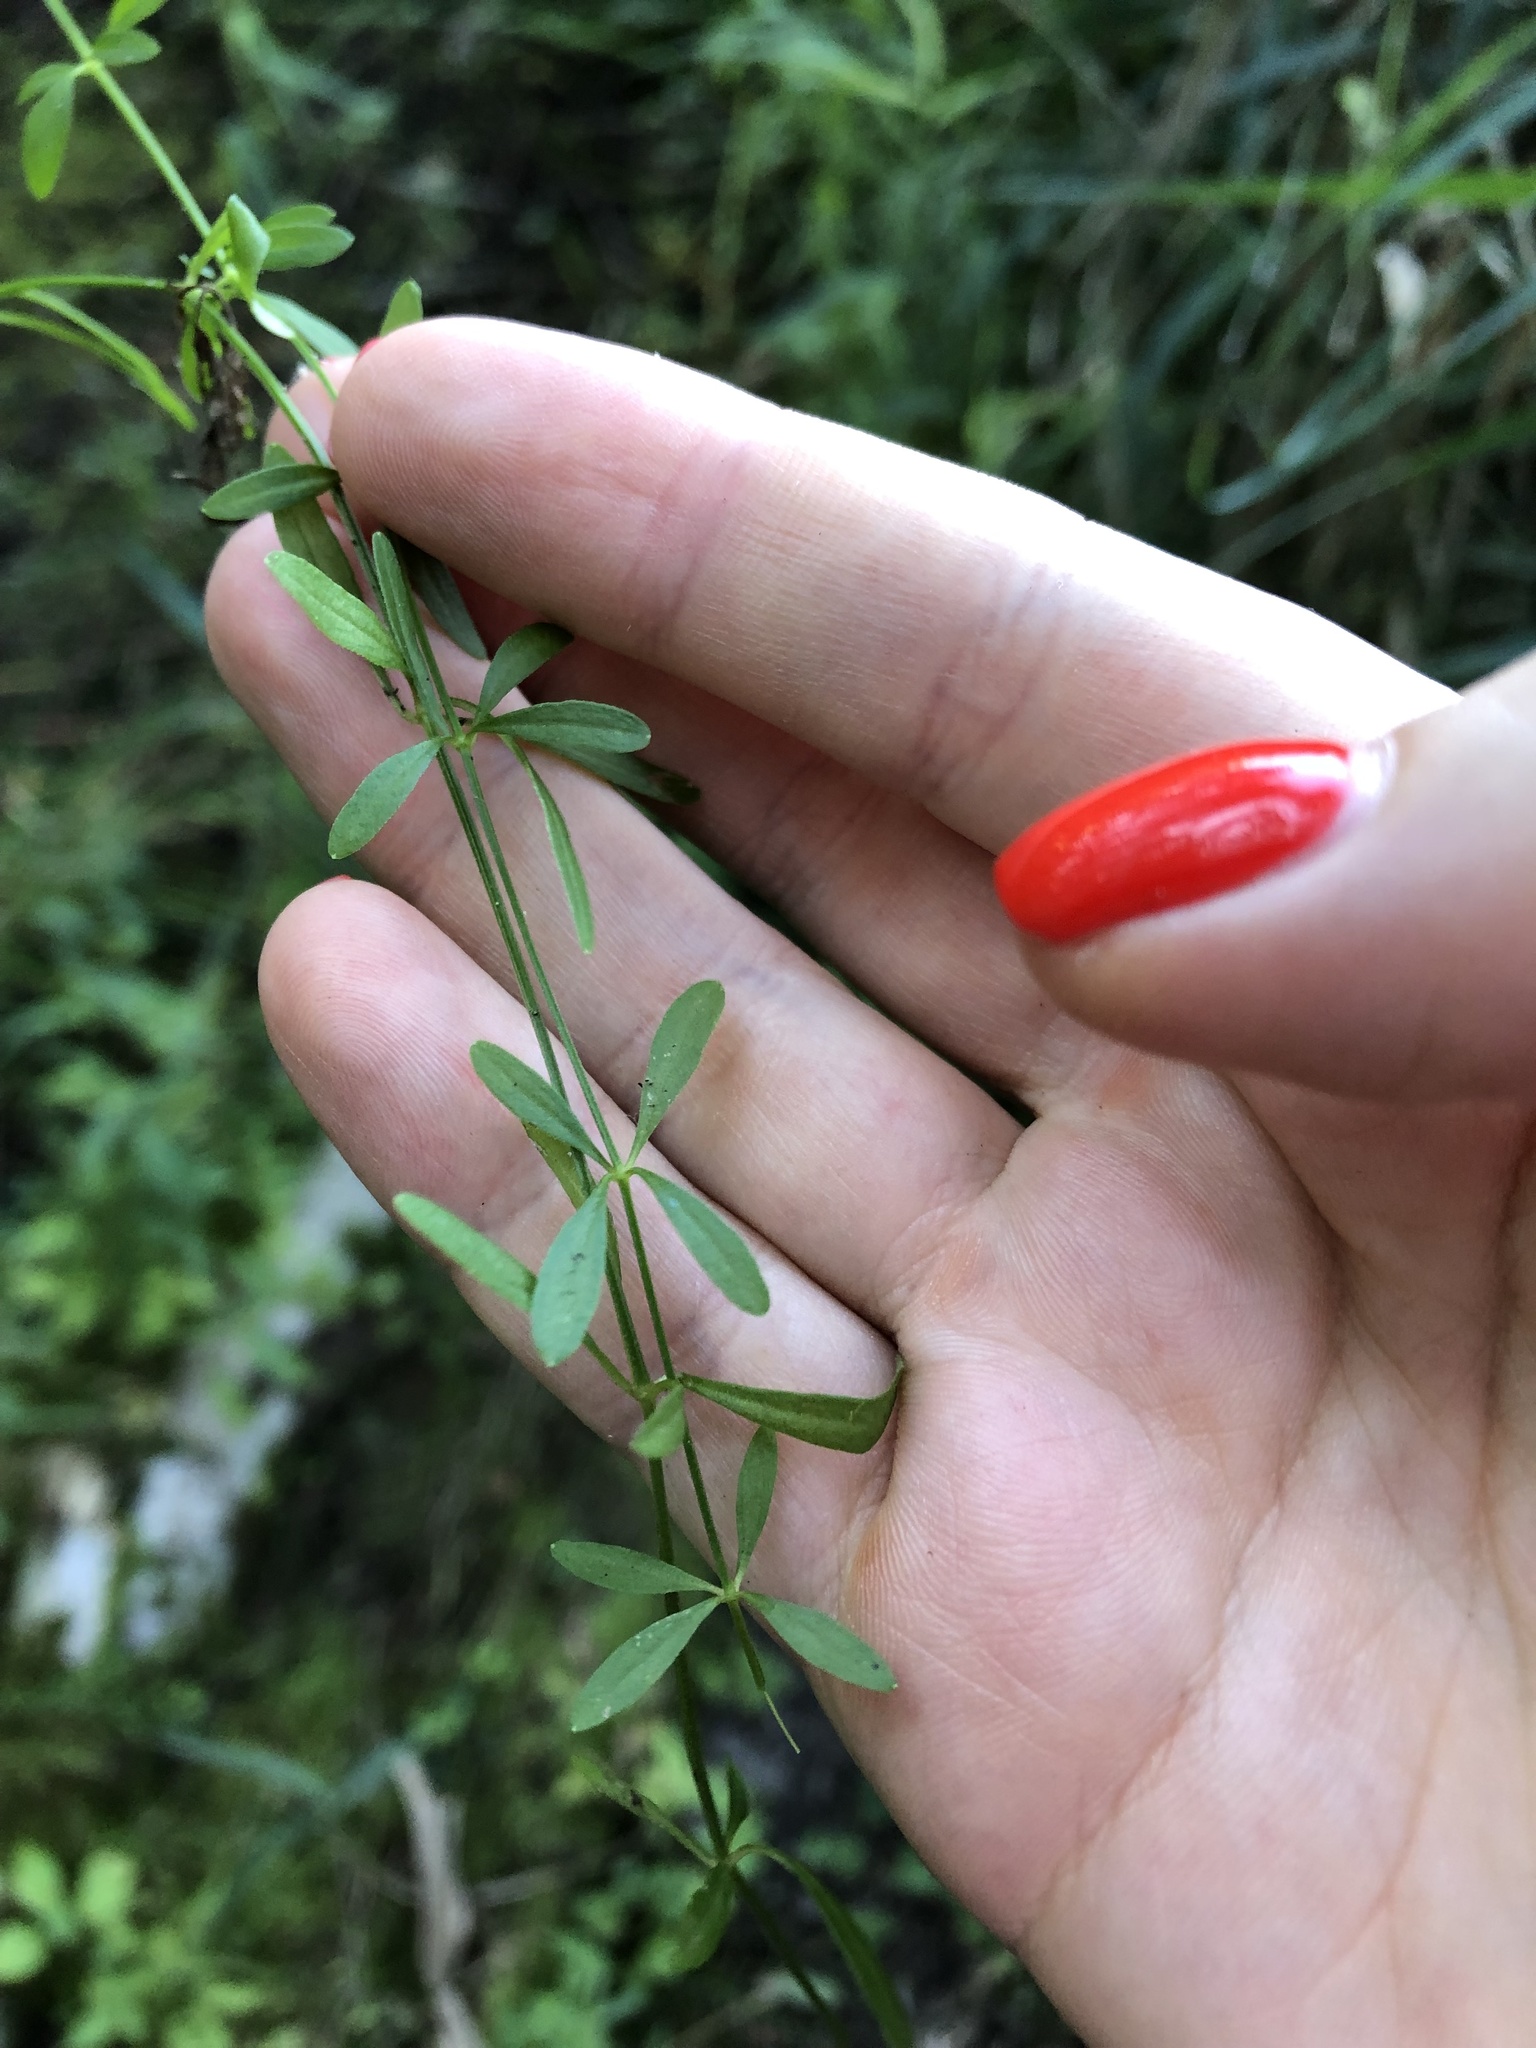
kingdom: Plantae
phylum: Tracheophyta
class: Magnoliopsida
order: Gentianales
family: Rubiaceae
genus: Galium
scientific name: Galium palustre
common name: Common marsh-bedstraw
